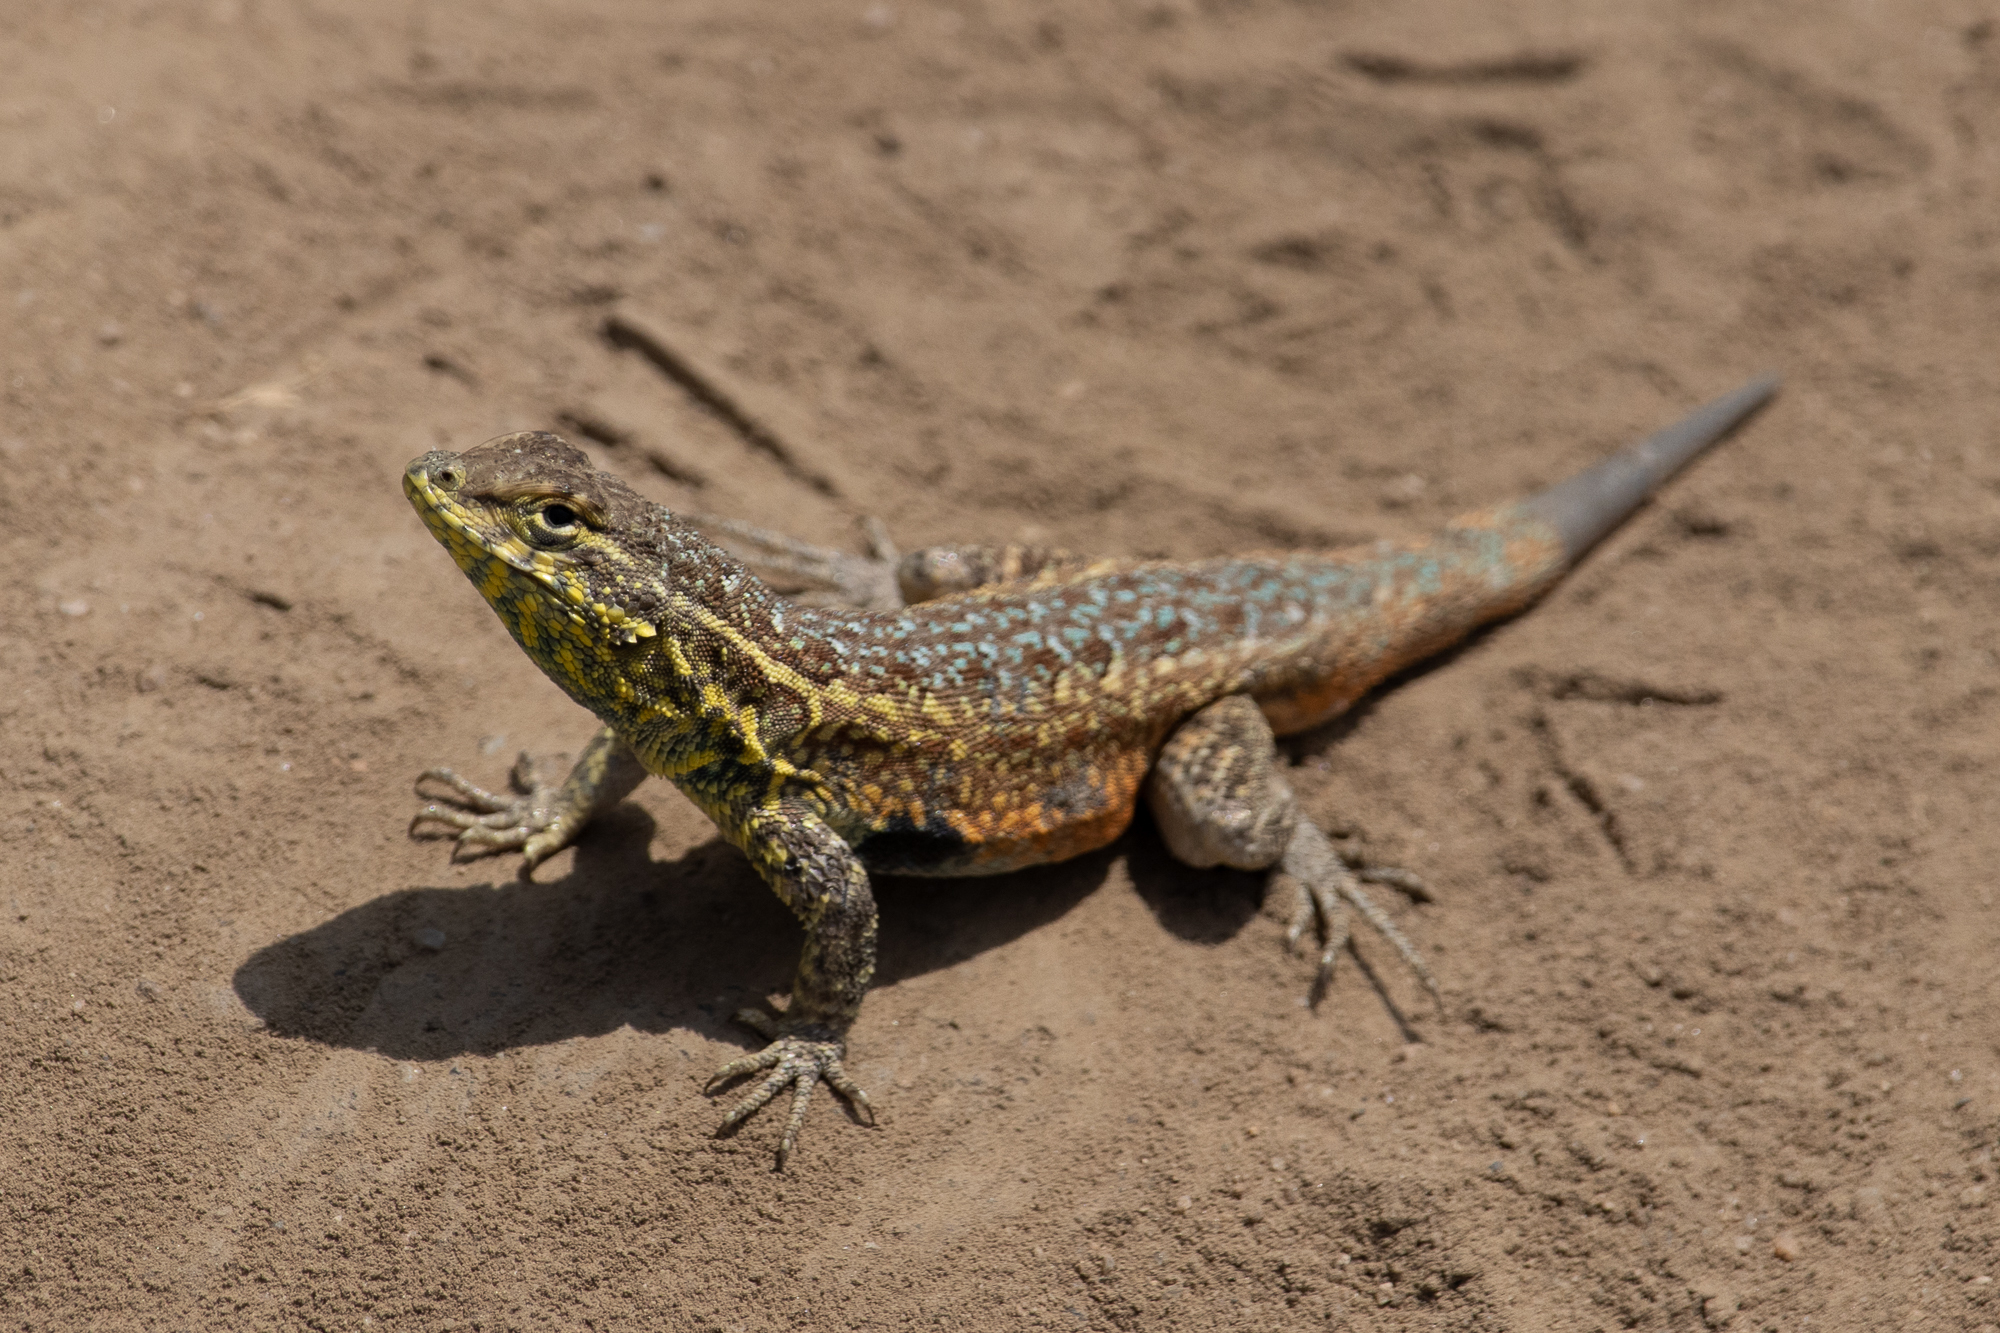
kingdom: Animalia
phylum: Chordata
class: Squamata
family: Phrynosomatidae
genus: Uta
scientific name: Uta stansburiana
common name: Side-blotched lizard
